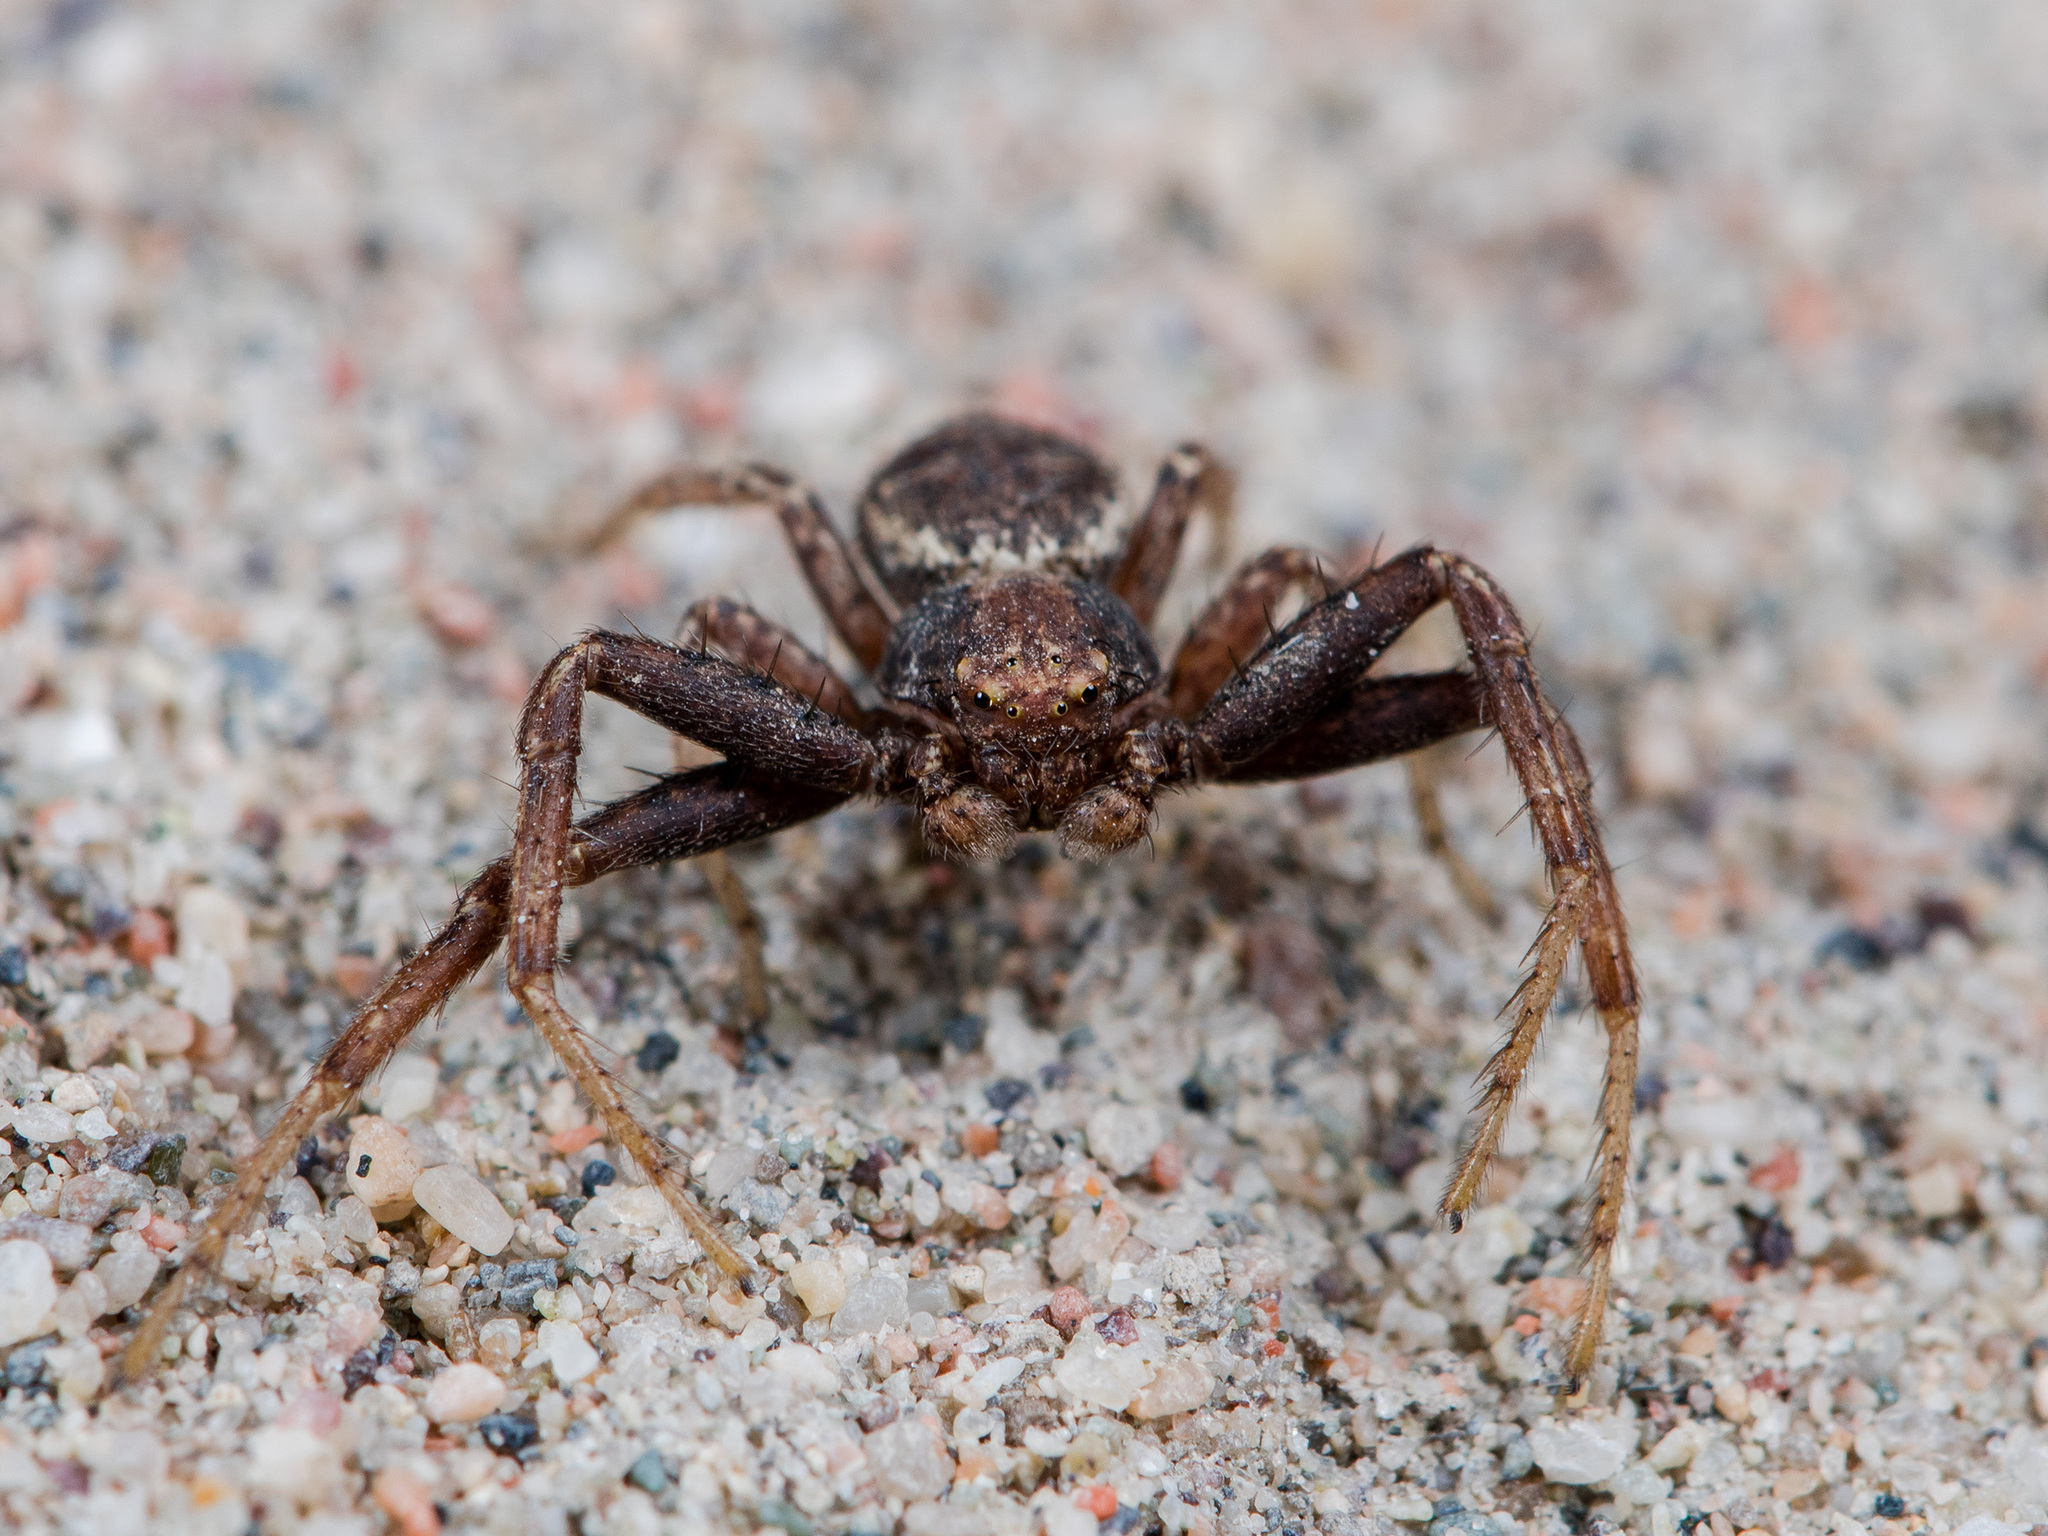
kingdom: Animalia
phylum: Arthropoda
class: Arachnida
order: Araneae
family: Thomisidae
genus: Xysticus
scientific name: Xysticus lapidarius
